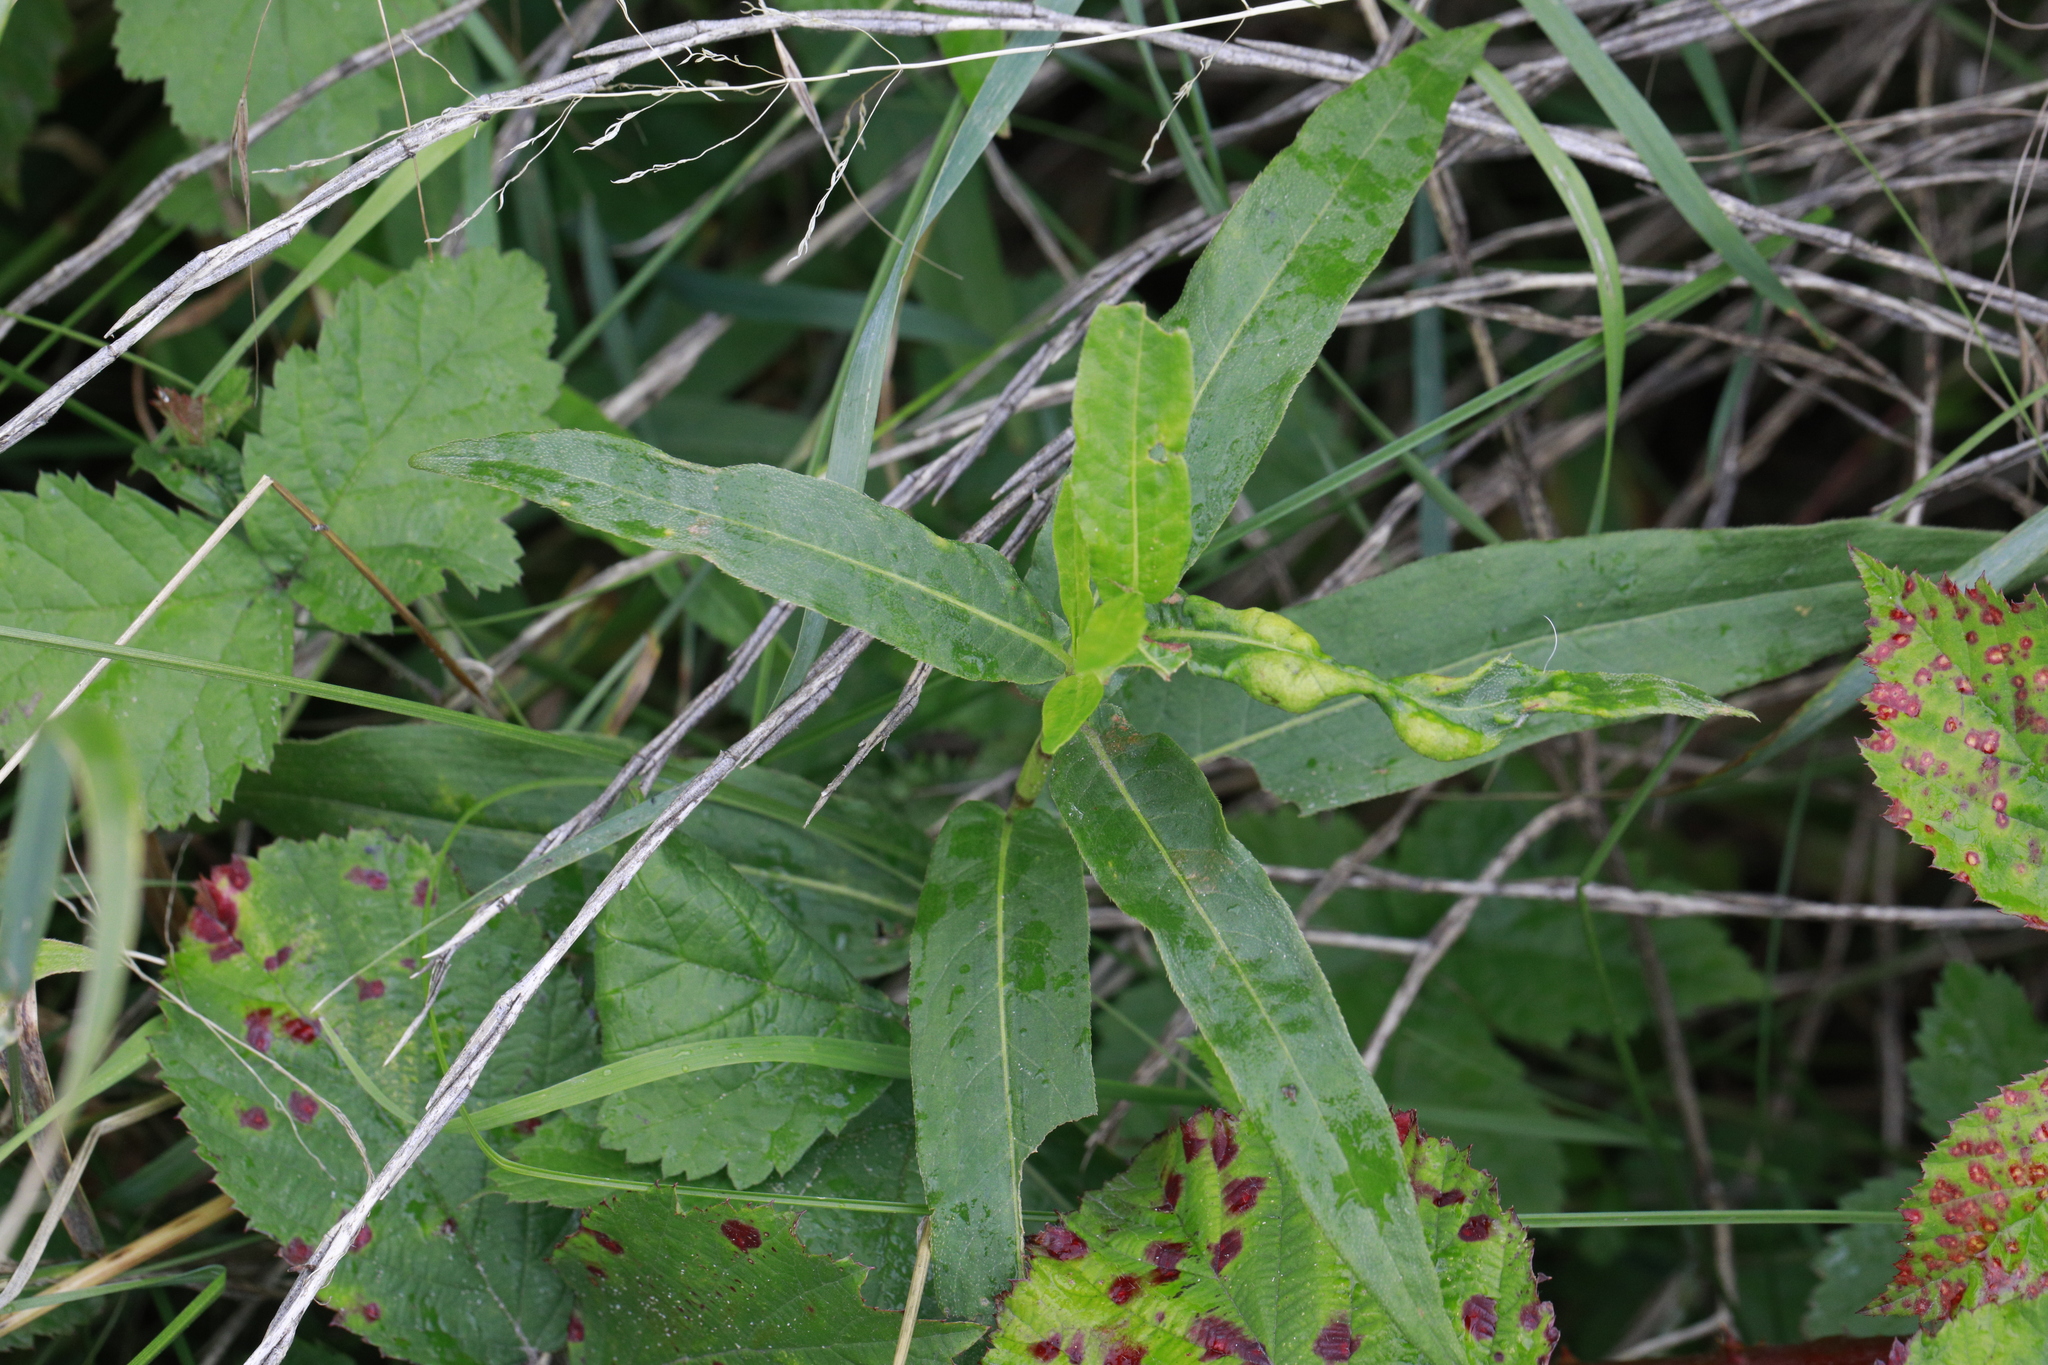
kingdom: Animalia
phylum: Arthropoda
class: Insecta
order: Diptera
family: Cecidomyiidae
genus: Wachtliella
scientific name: Wachtliella persicariae
